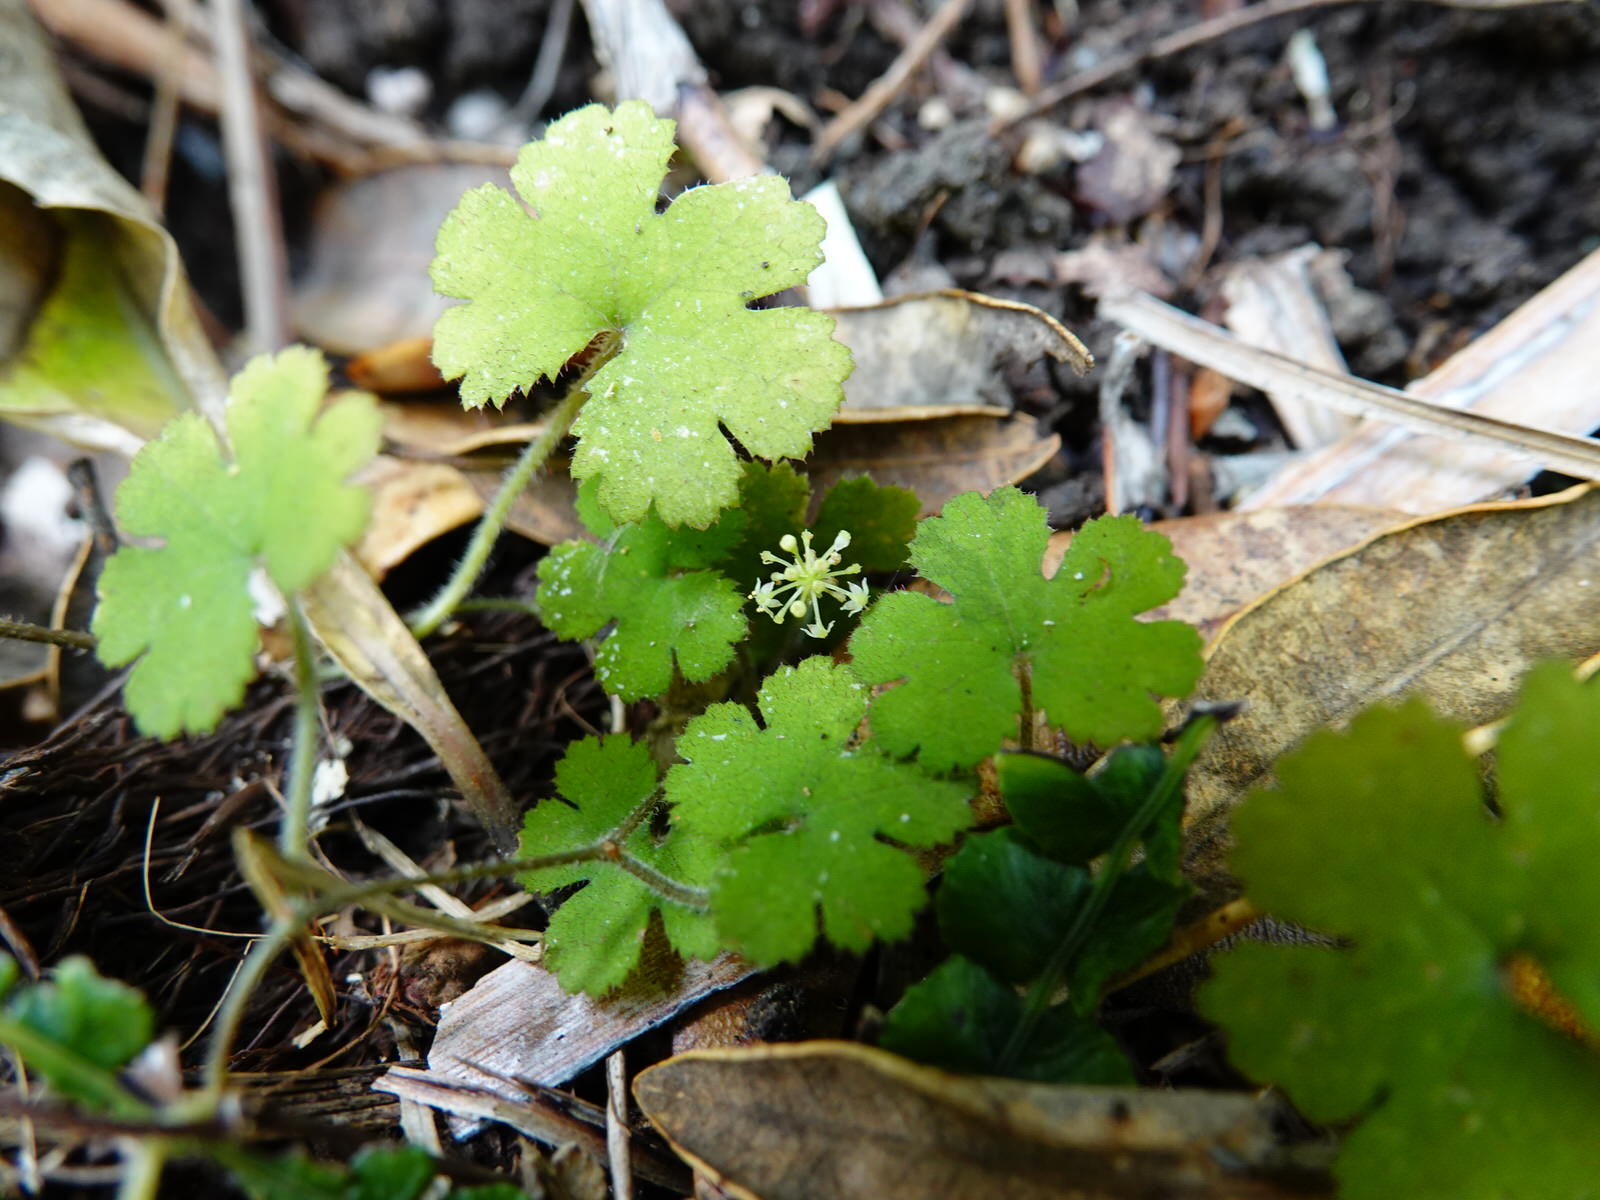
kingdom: Plantae
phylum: Tracheophyta
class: Magnoliopsida
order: Apiales
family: Araliaceae
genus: Hydrocotyle
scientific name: Hydrocotyle elongata
